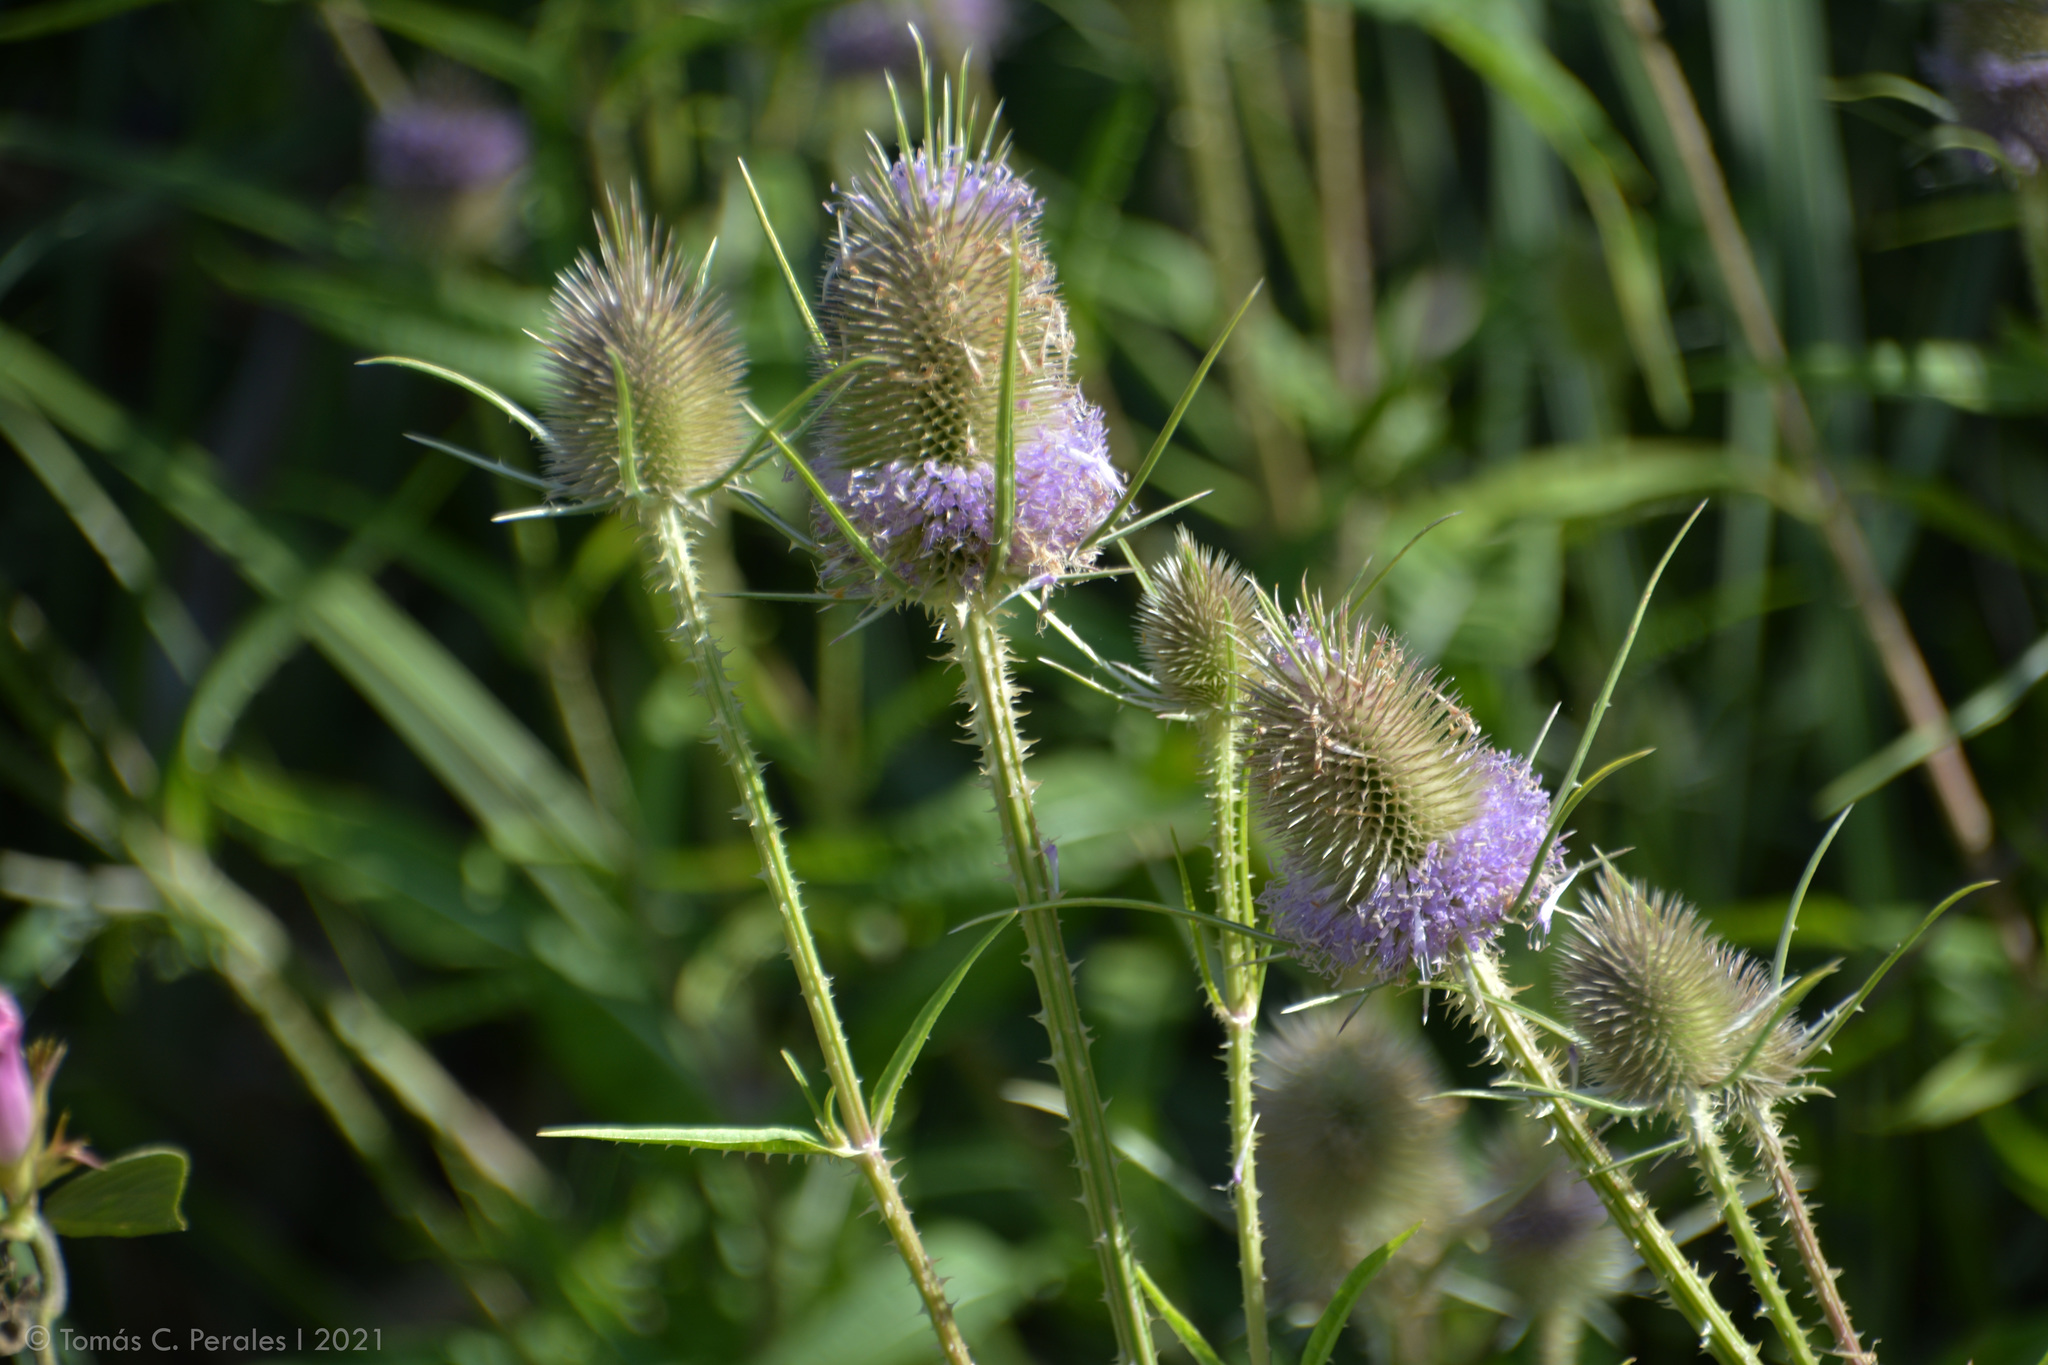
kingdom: Plantae
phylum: Tracheophyta
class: Magnoliopsida
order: Dipsacales
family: Caprifoliaceae
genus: Dipsacus
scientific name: Dipsacus fullonum
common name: Teasel
